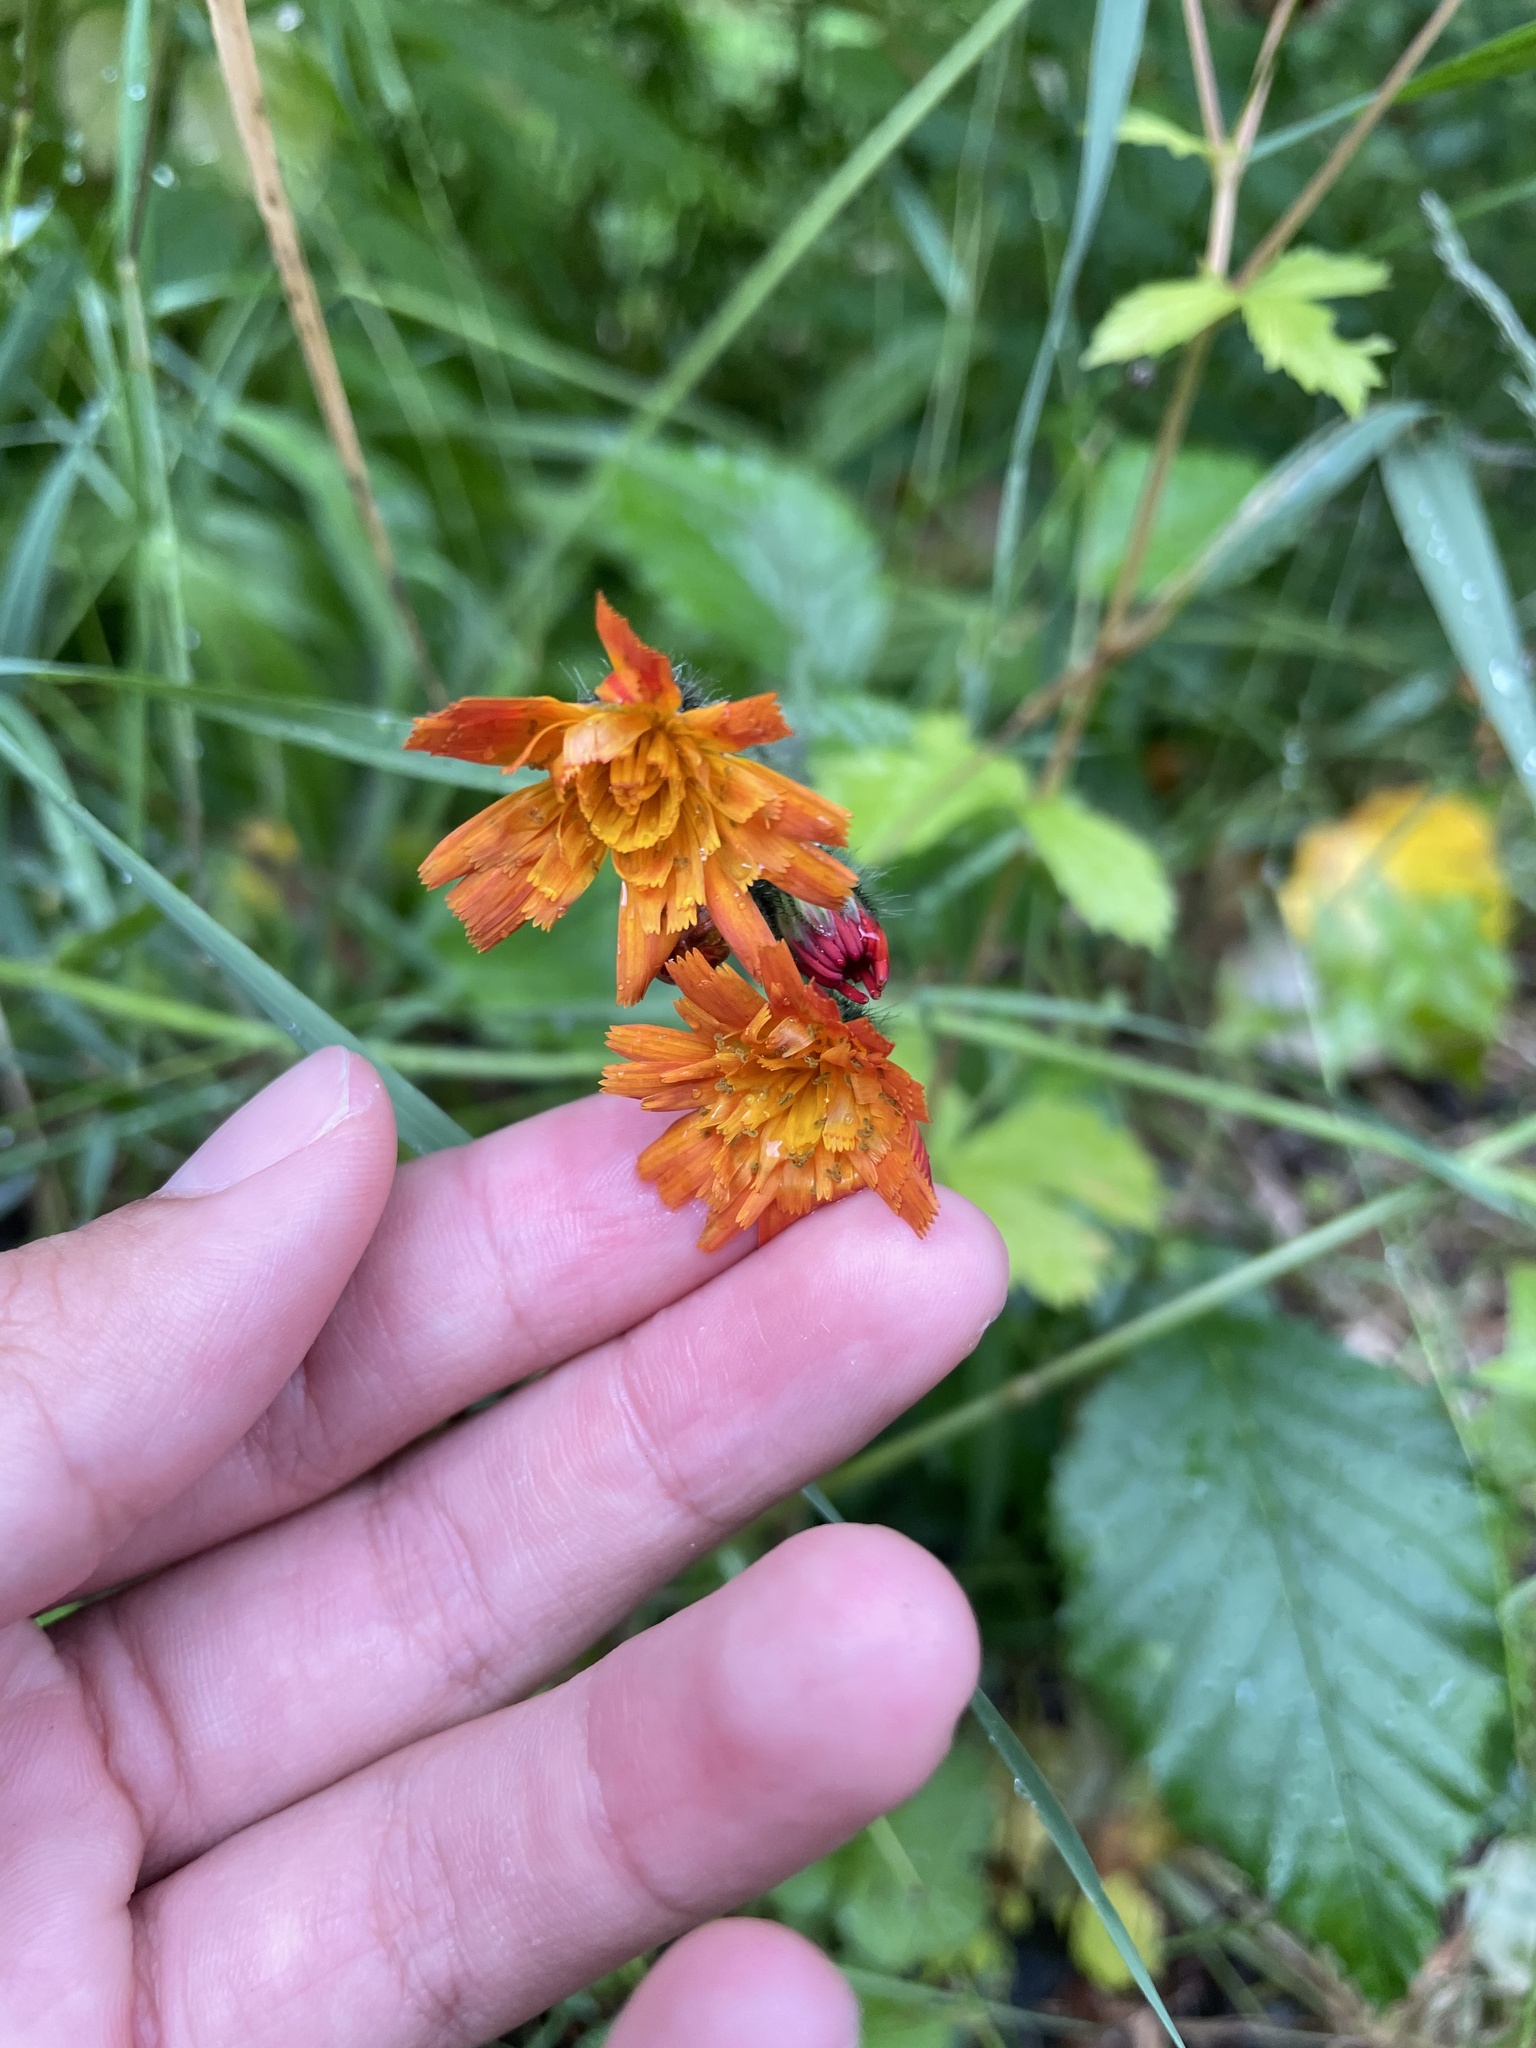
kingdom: Plantae
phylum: Tracheophyta
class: Magnoliopsida
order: Asterales
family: Asteraceae
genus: Pilosella
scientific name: Pilosella aurantiaca
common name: Fox-and-cubs
